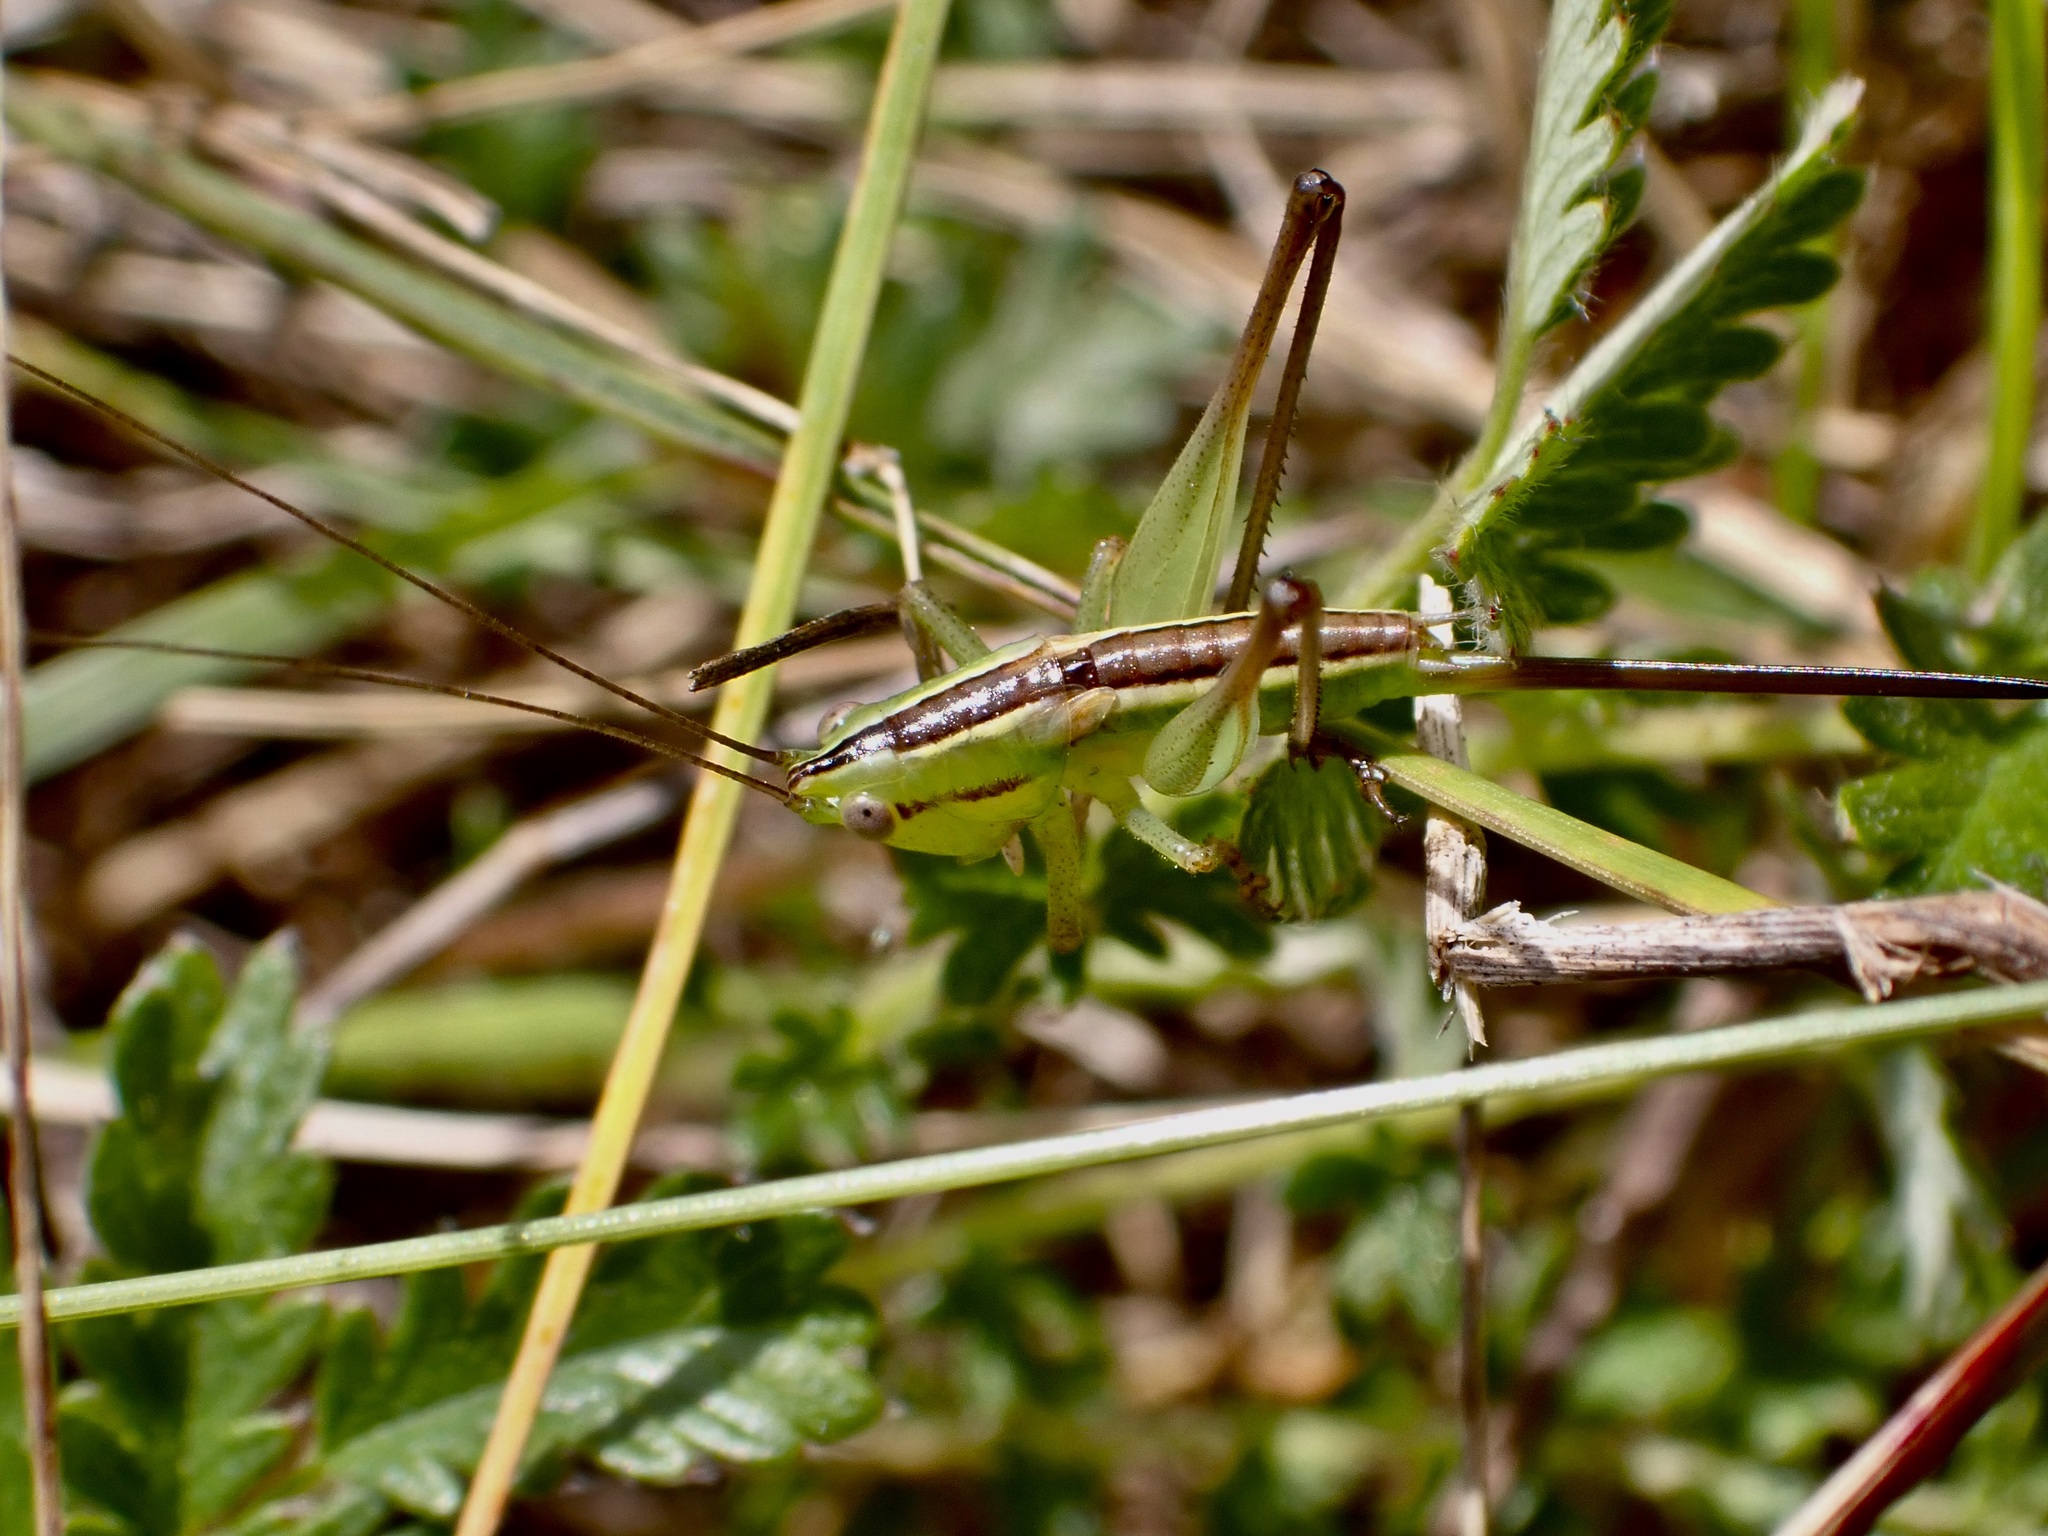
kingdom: Animalia
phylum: Arthropoda
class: Insecta
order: Orthoptera
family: Tettigoniidae
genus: Conocephalus
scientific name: Conocephalus bilineatus
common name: Small meadow katydid
